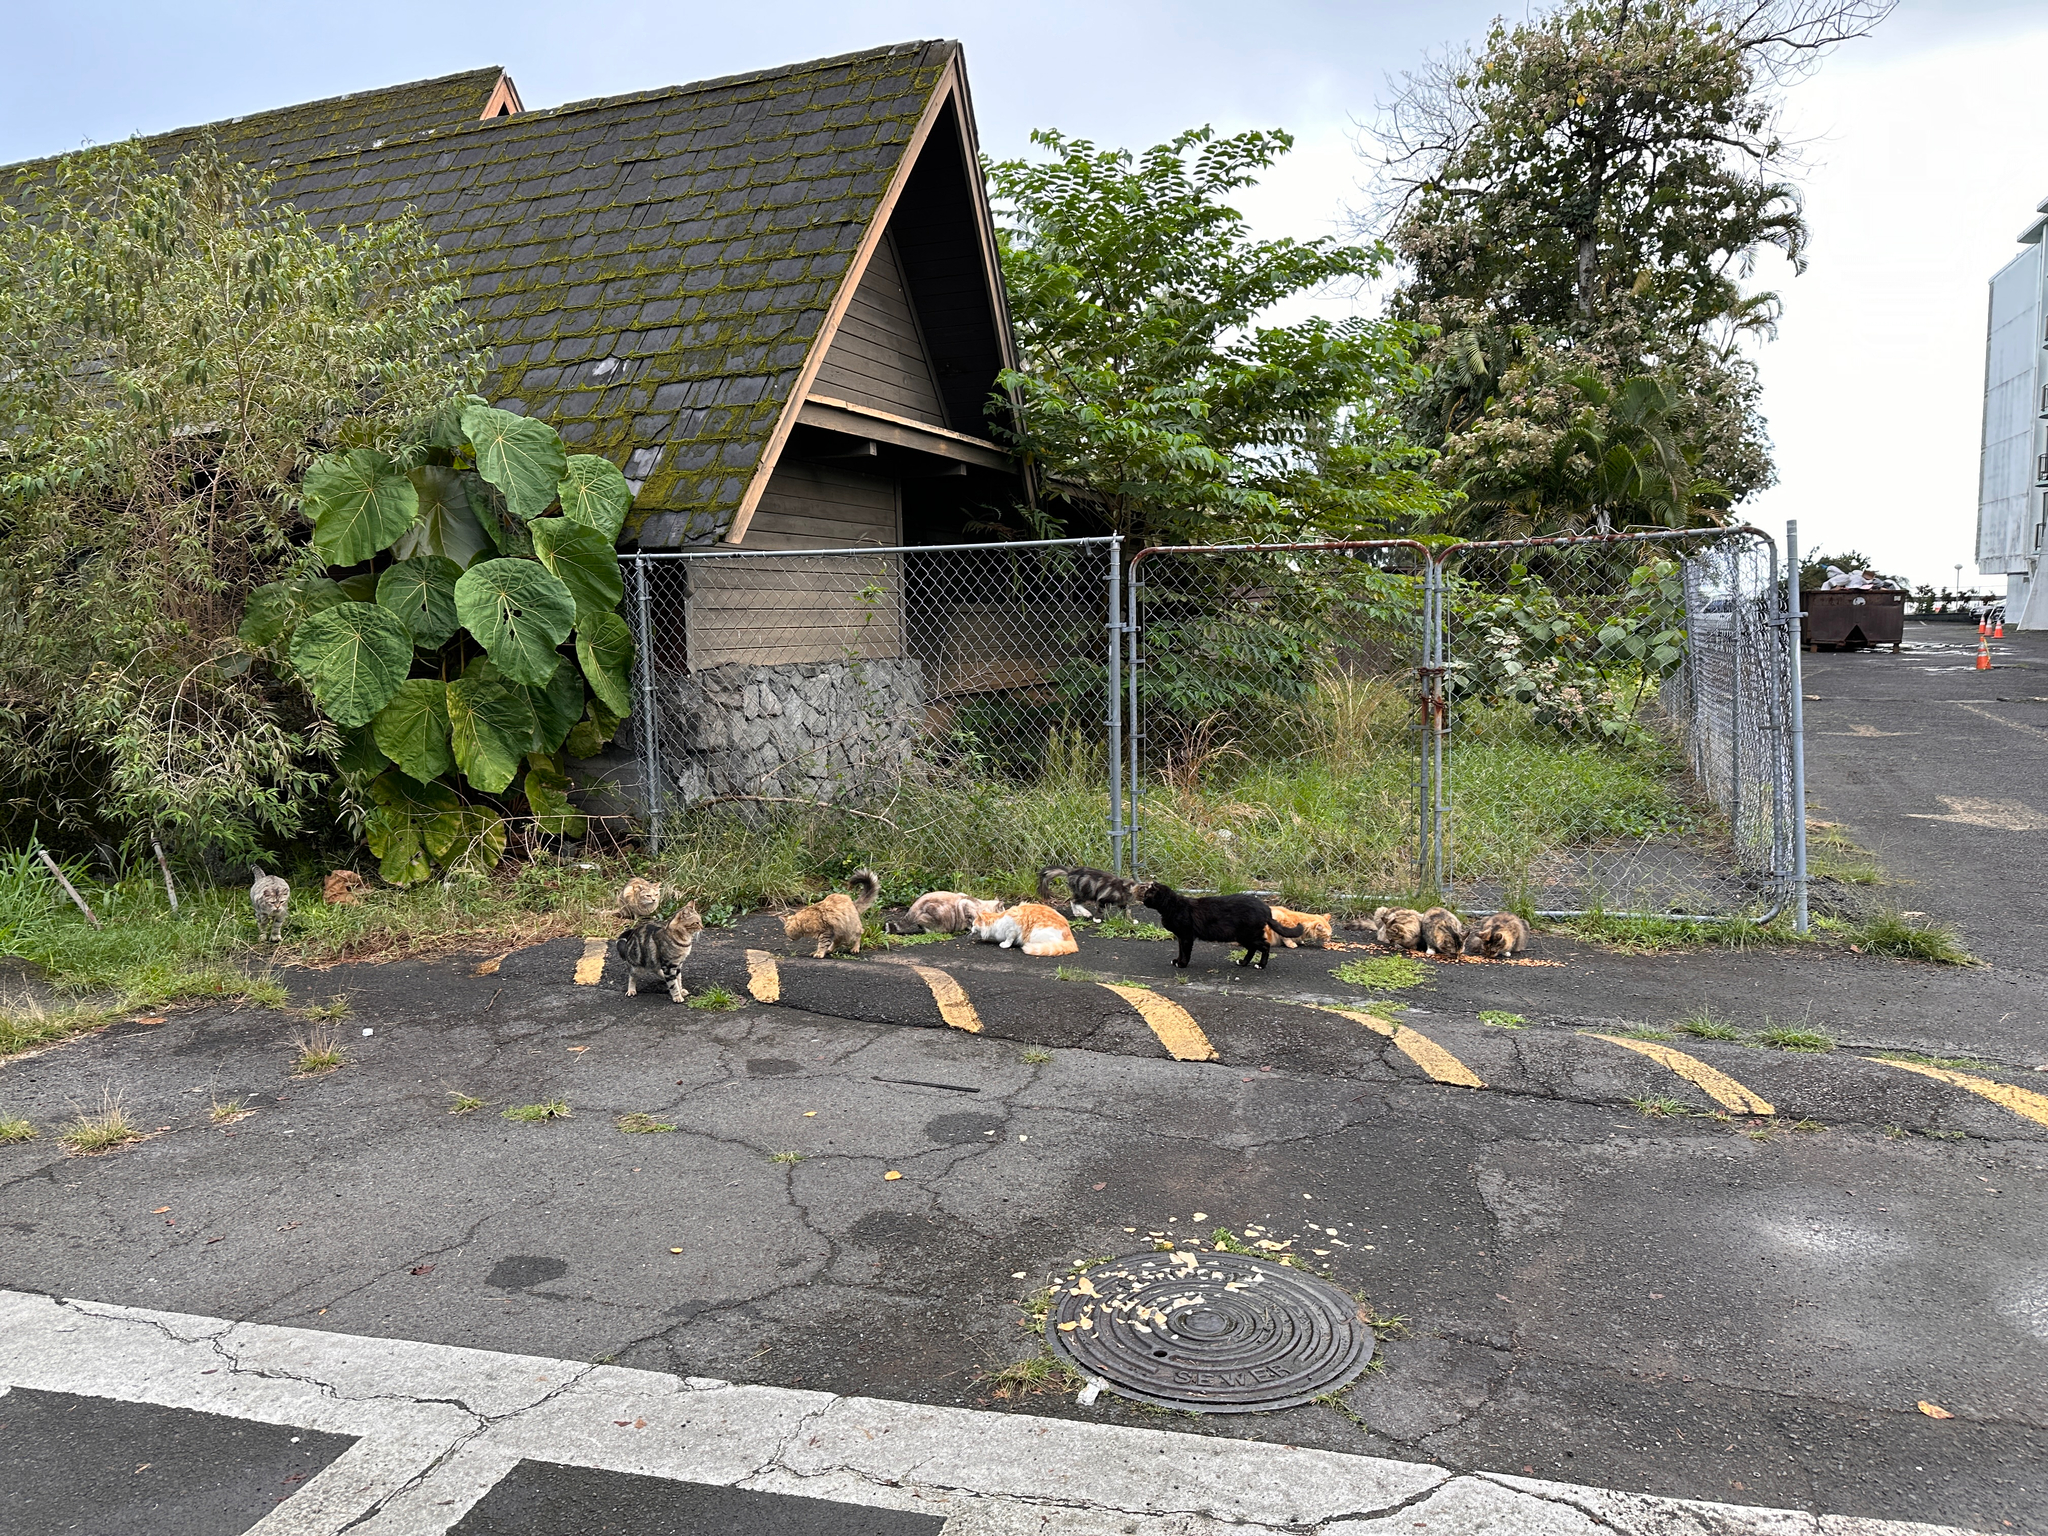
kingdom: Animalia
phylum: Chordata
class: Mammalia
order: Carnivora
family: Felidae
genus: Felis
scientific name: Felis catus
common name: Domestic cat
